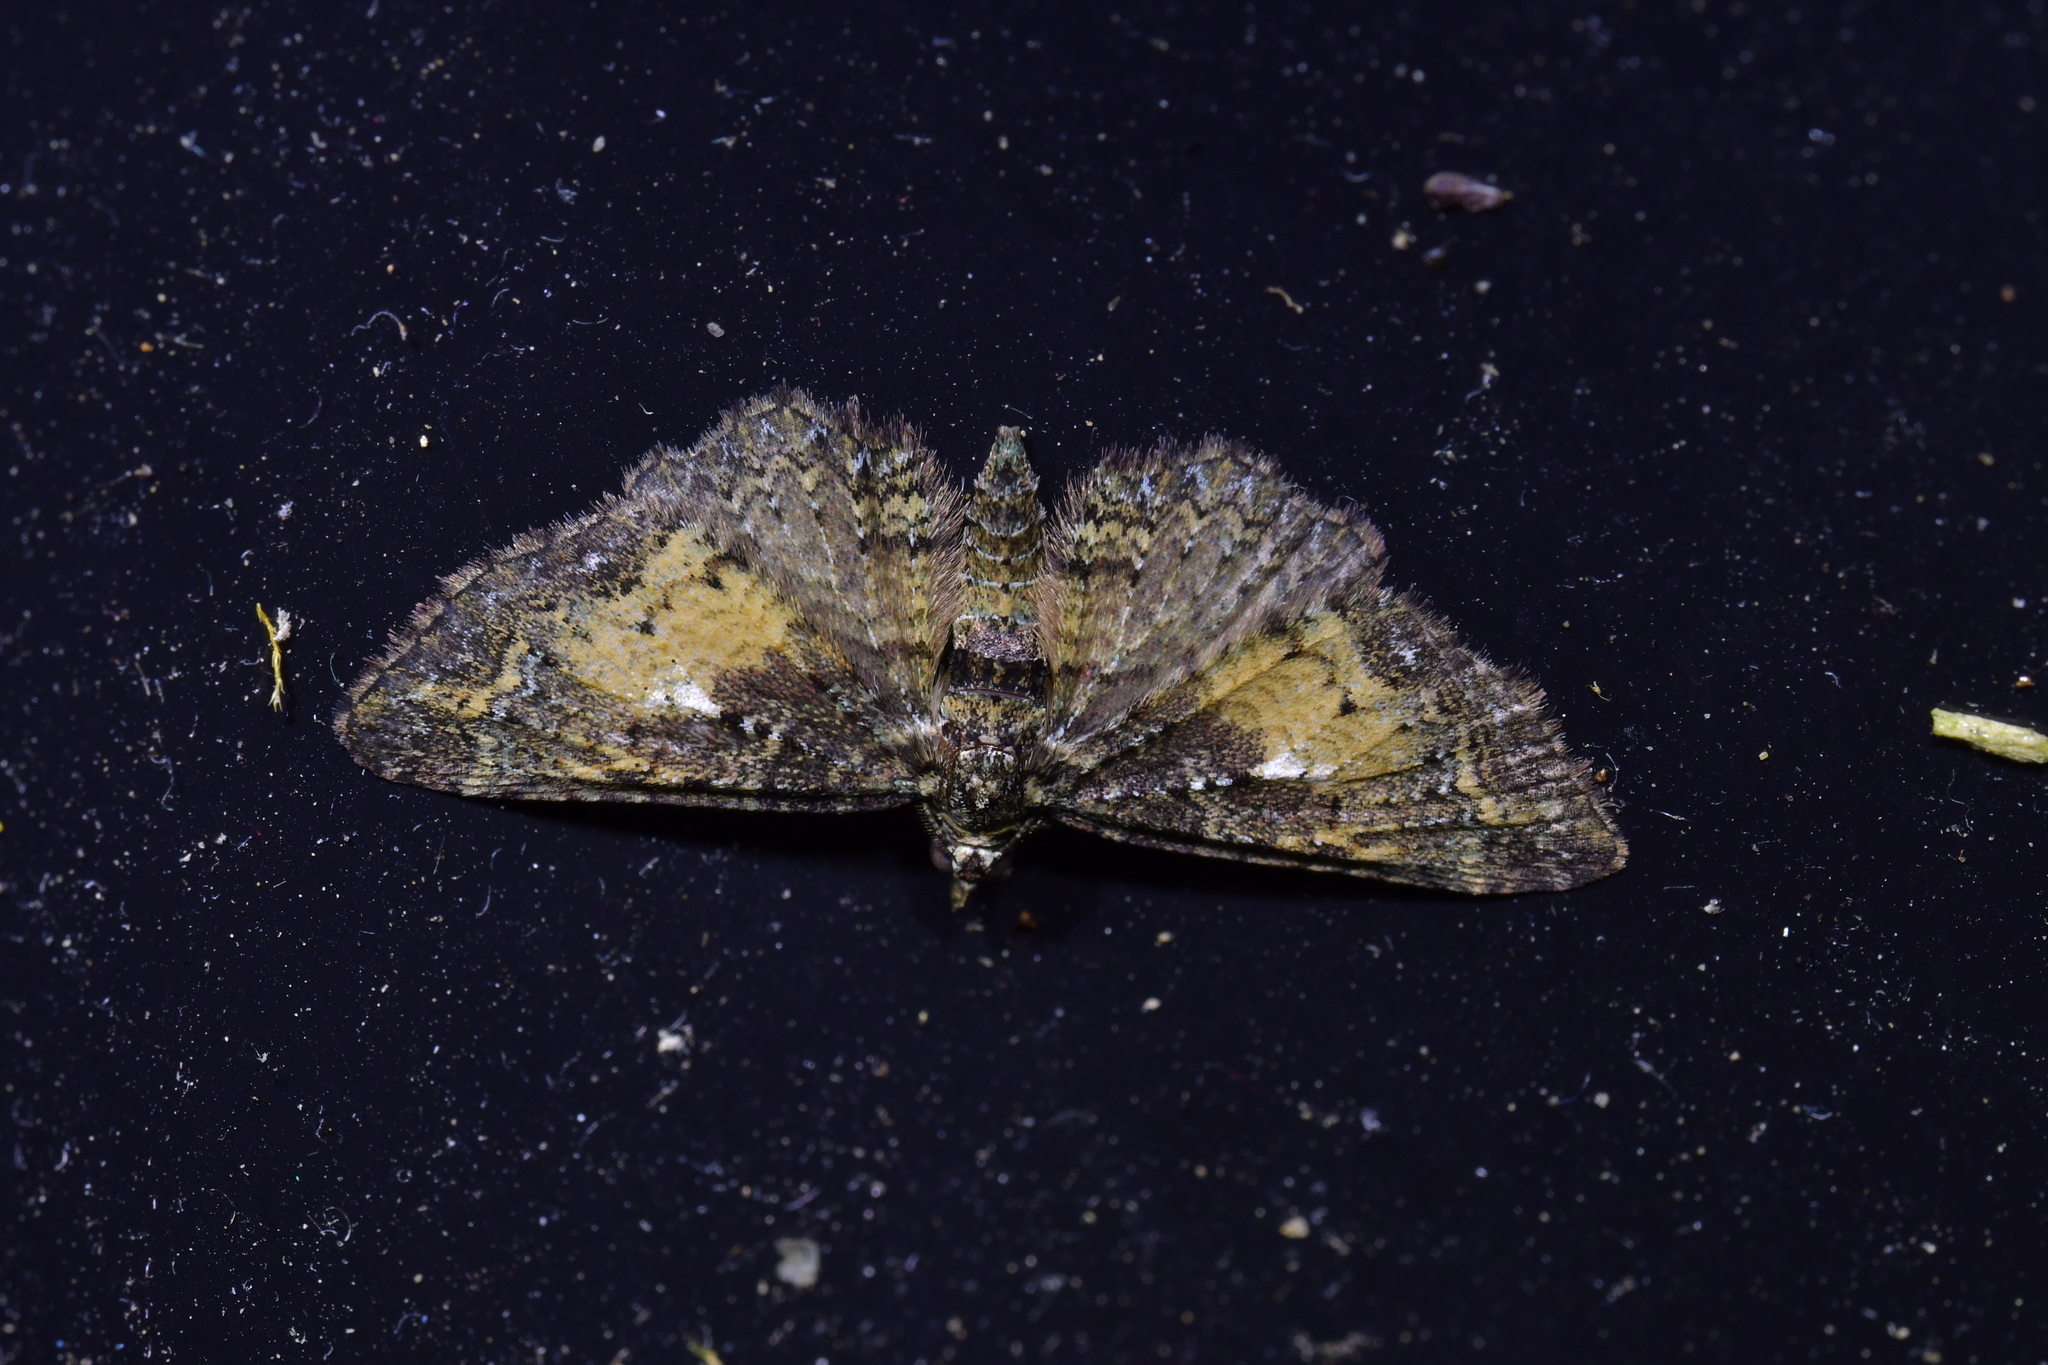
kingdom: Animalia
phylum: Arthropoda
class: Insecta
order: Lepidoptera
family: Geometridae
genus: Pasiphila
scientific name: Pasiphila lunata
